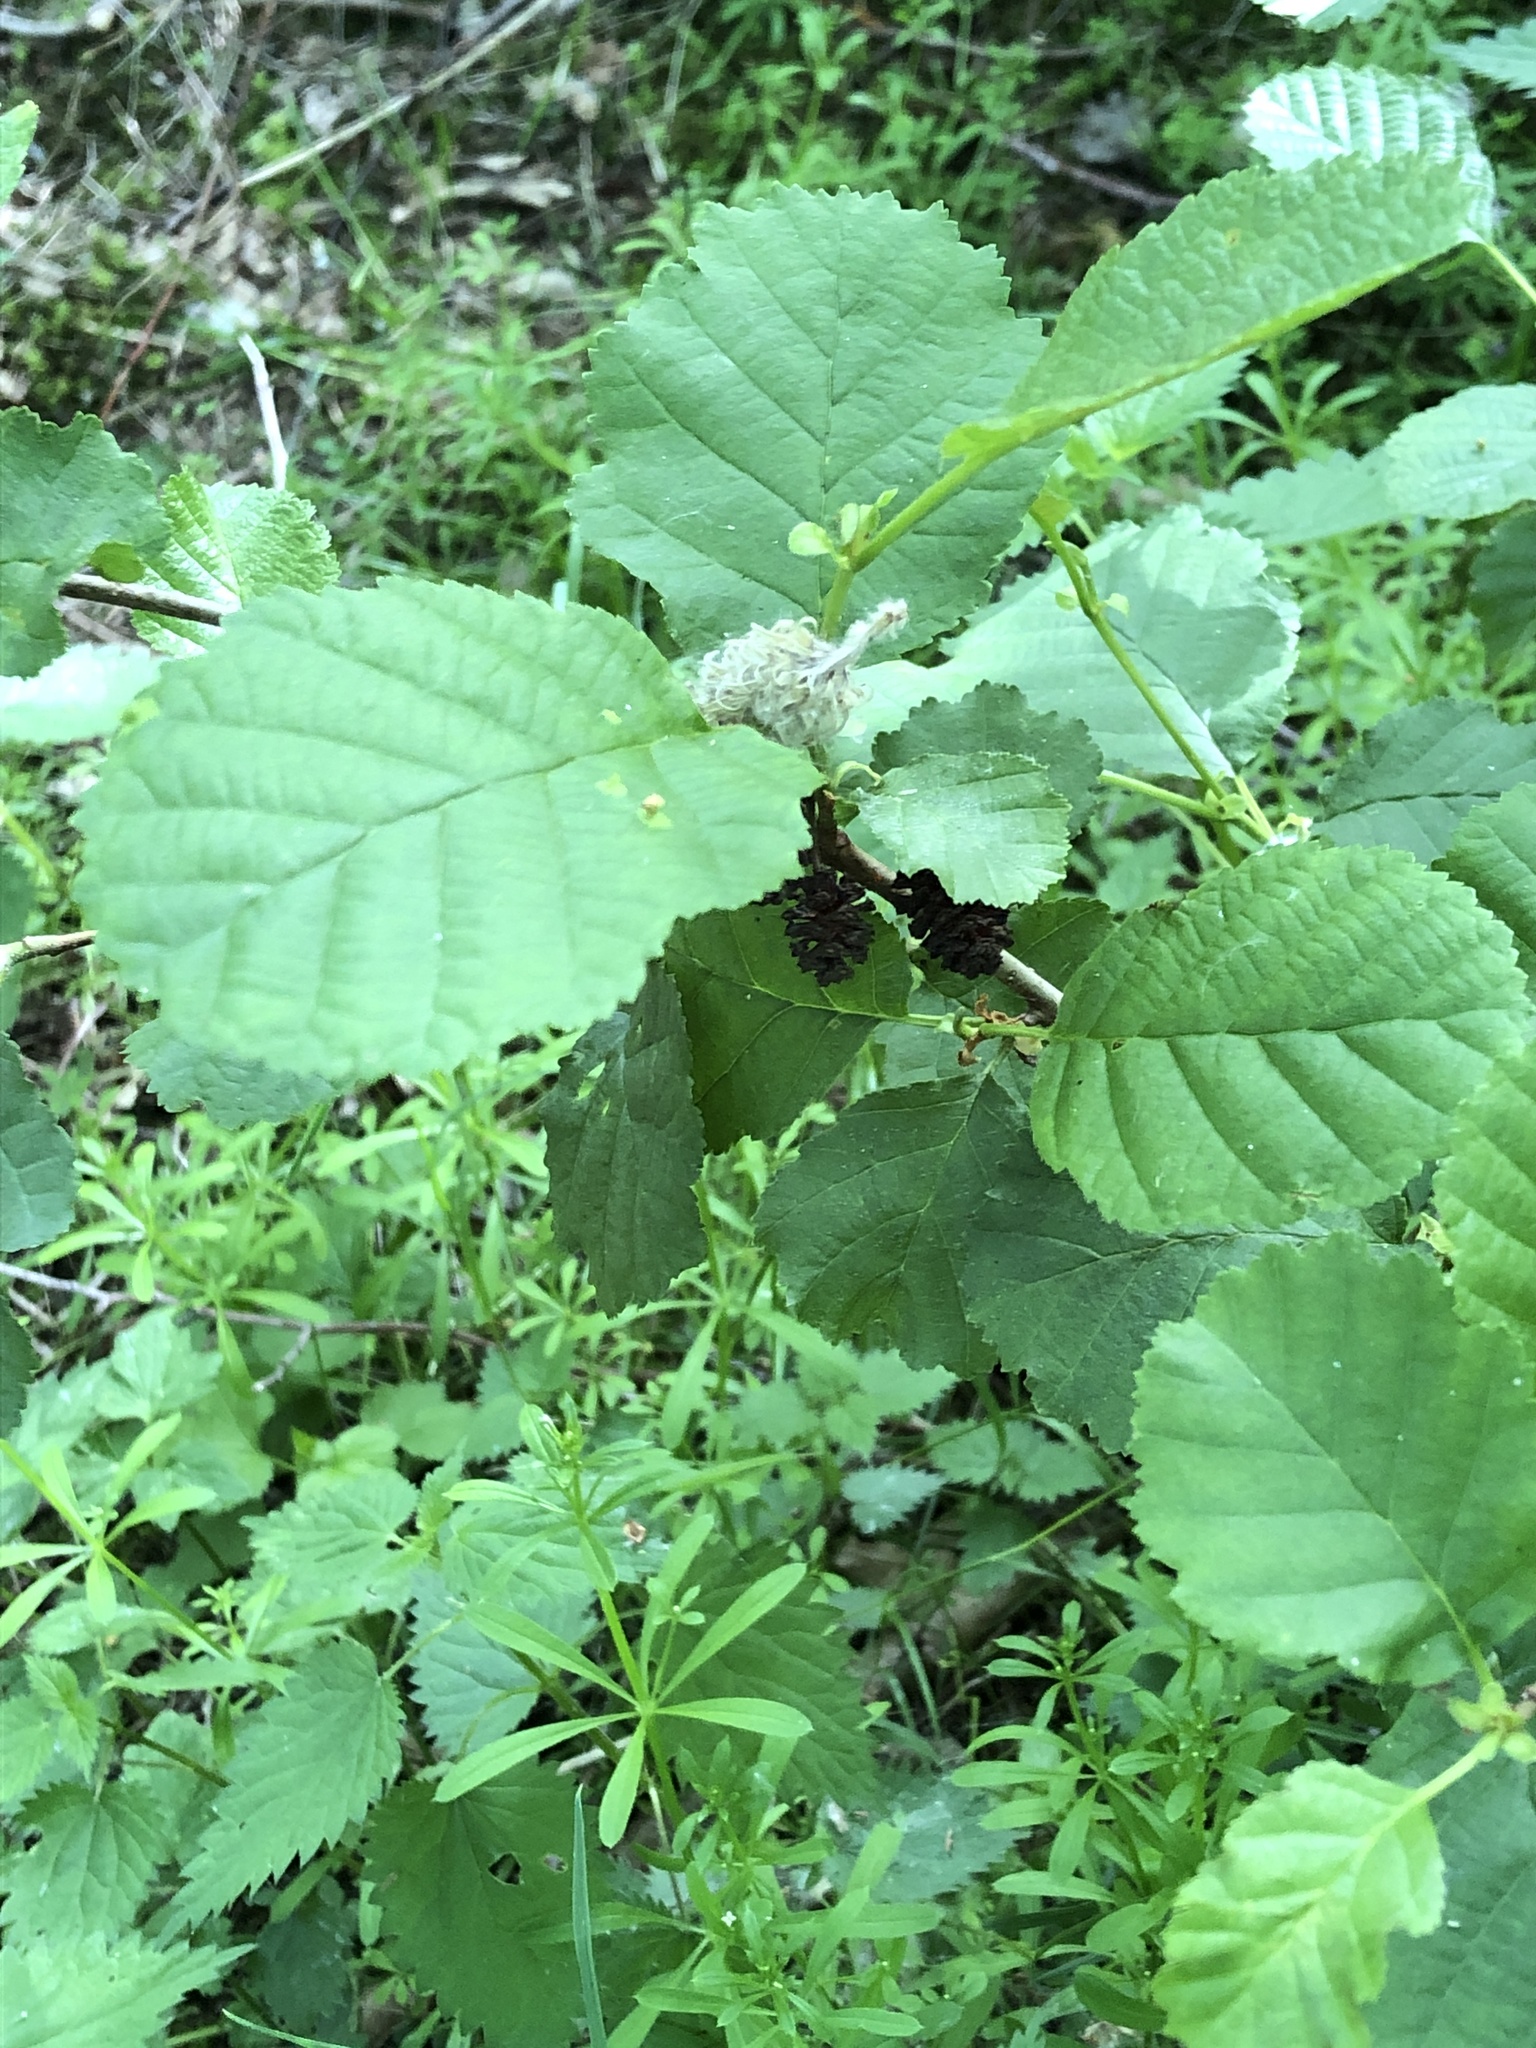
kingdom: Plantae
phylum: Tracheophyta
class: Magnoliopsida
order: Fagales
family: Betulaceae
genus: Alnus
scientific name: Alnus glutinosa
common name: Black alder
